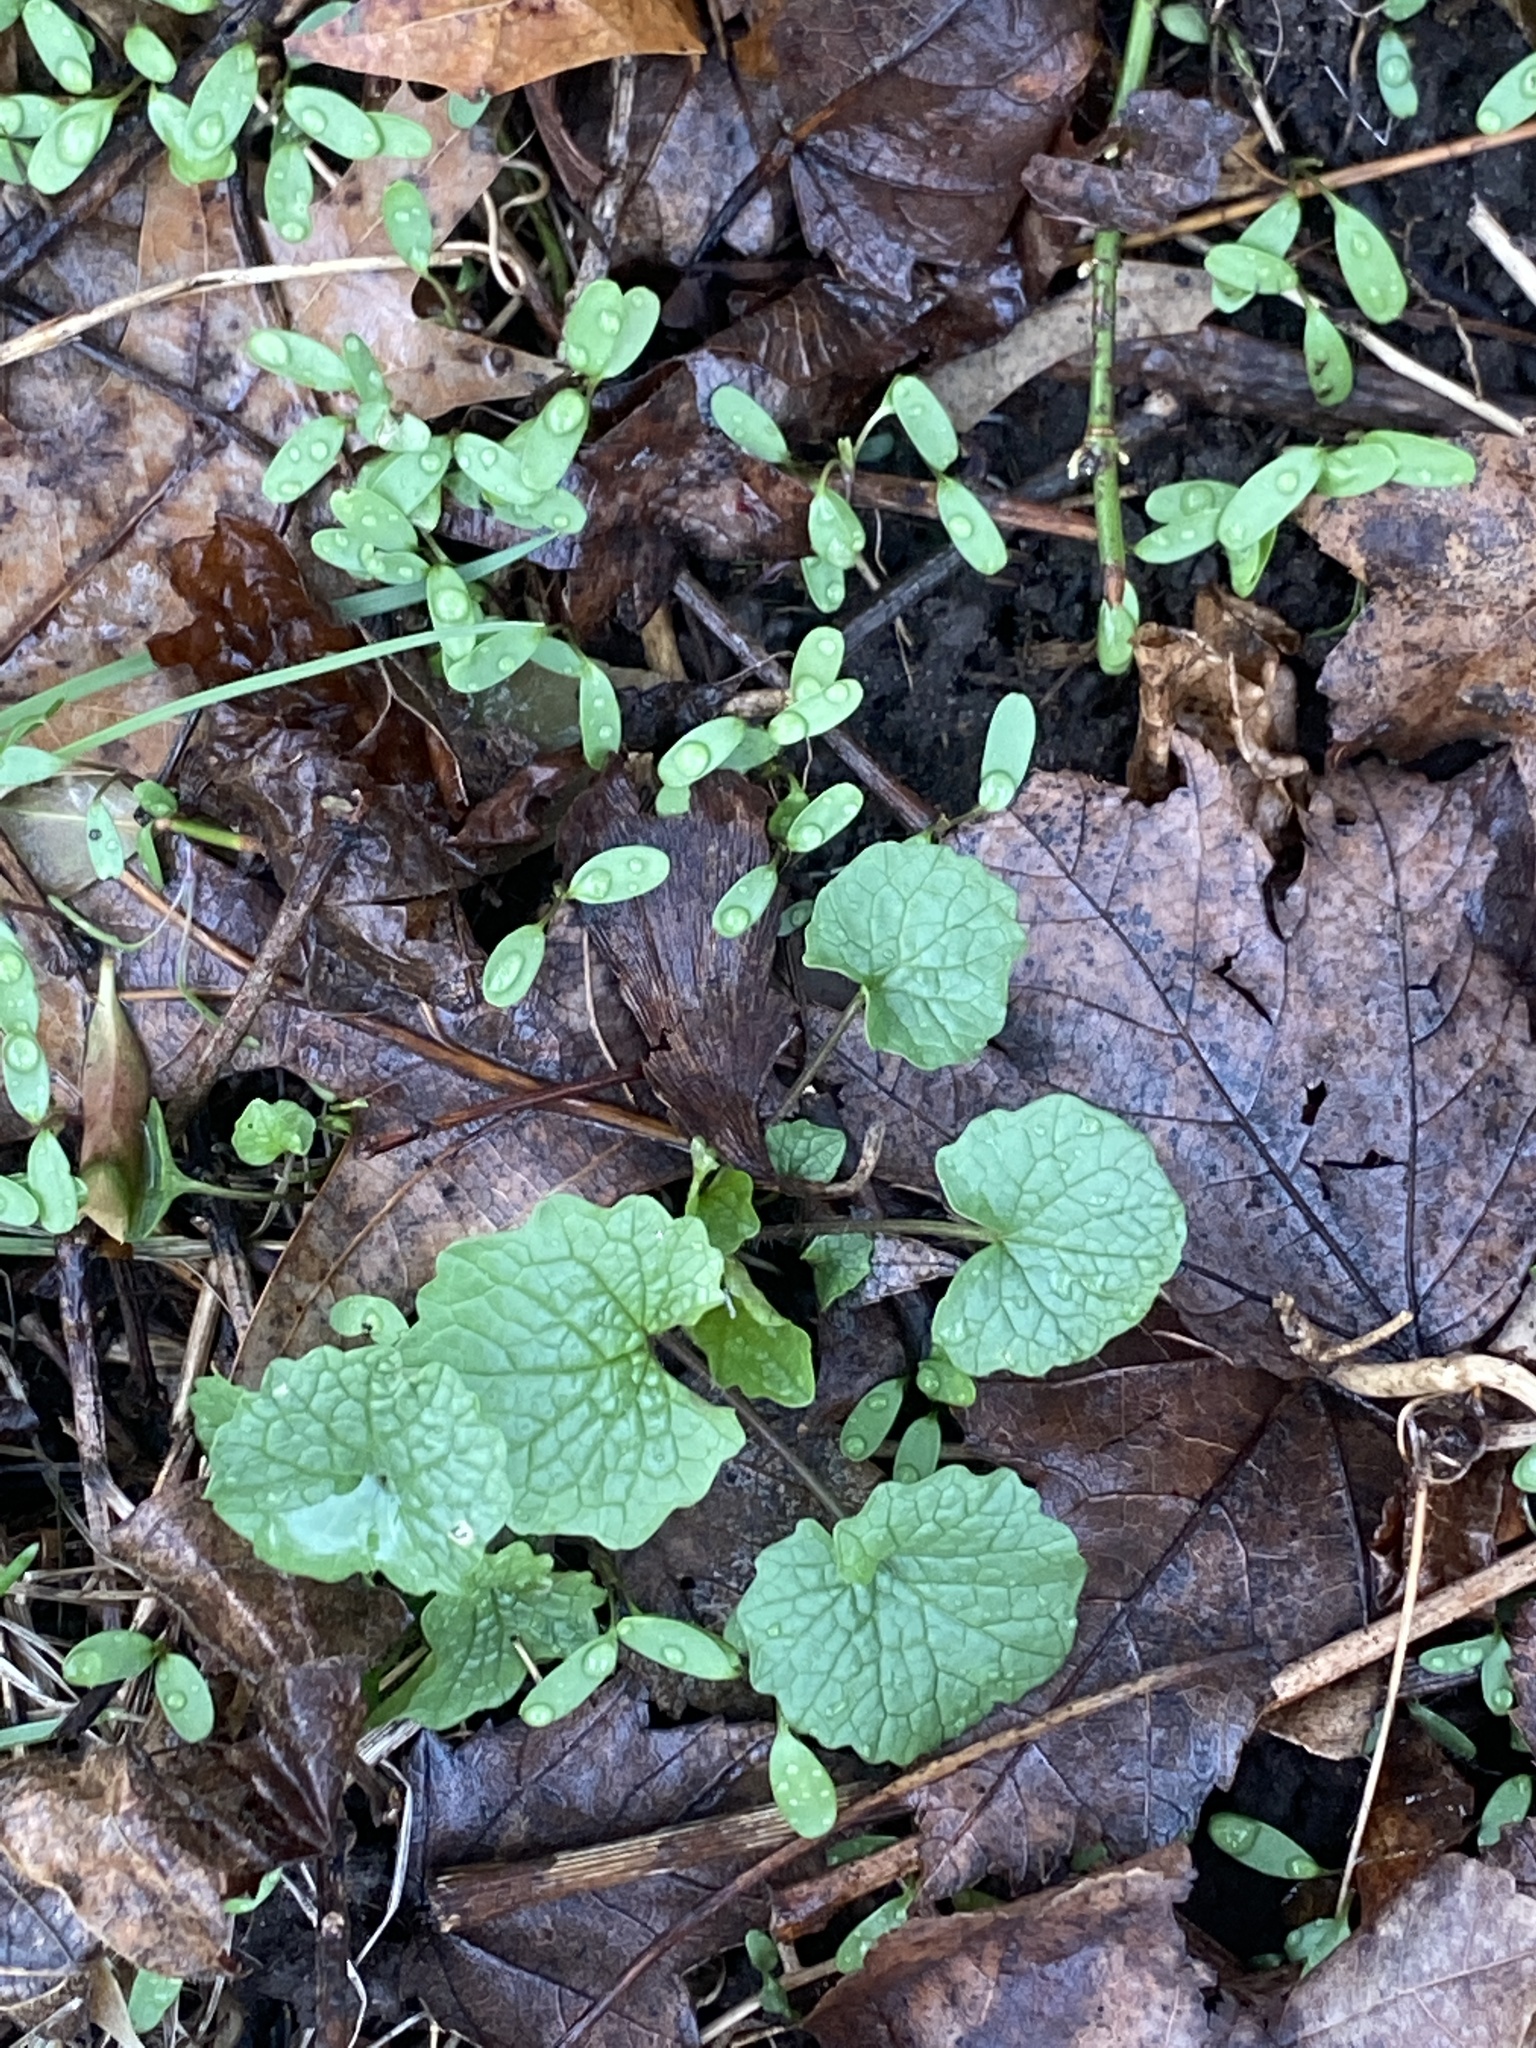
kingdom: Plantae
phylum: Tracheophyta
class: Magnoliopsida
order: Brassicales
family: Brassicaceae
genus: Alliaria
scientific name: Alliaria petiolata
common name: Garlic mustard
